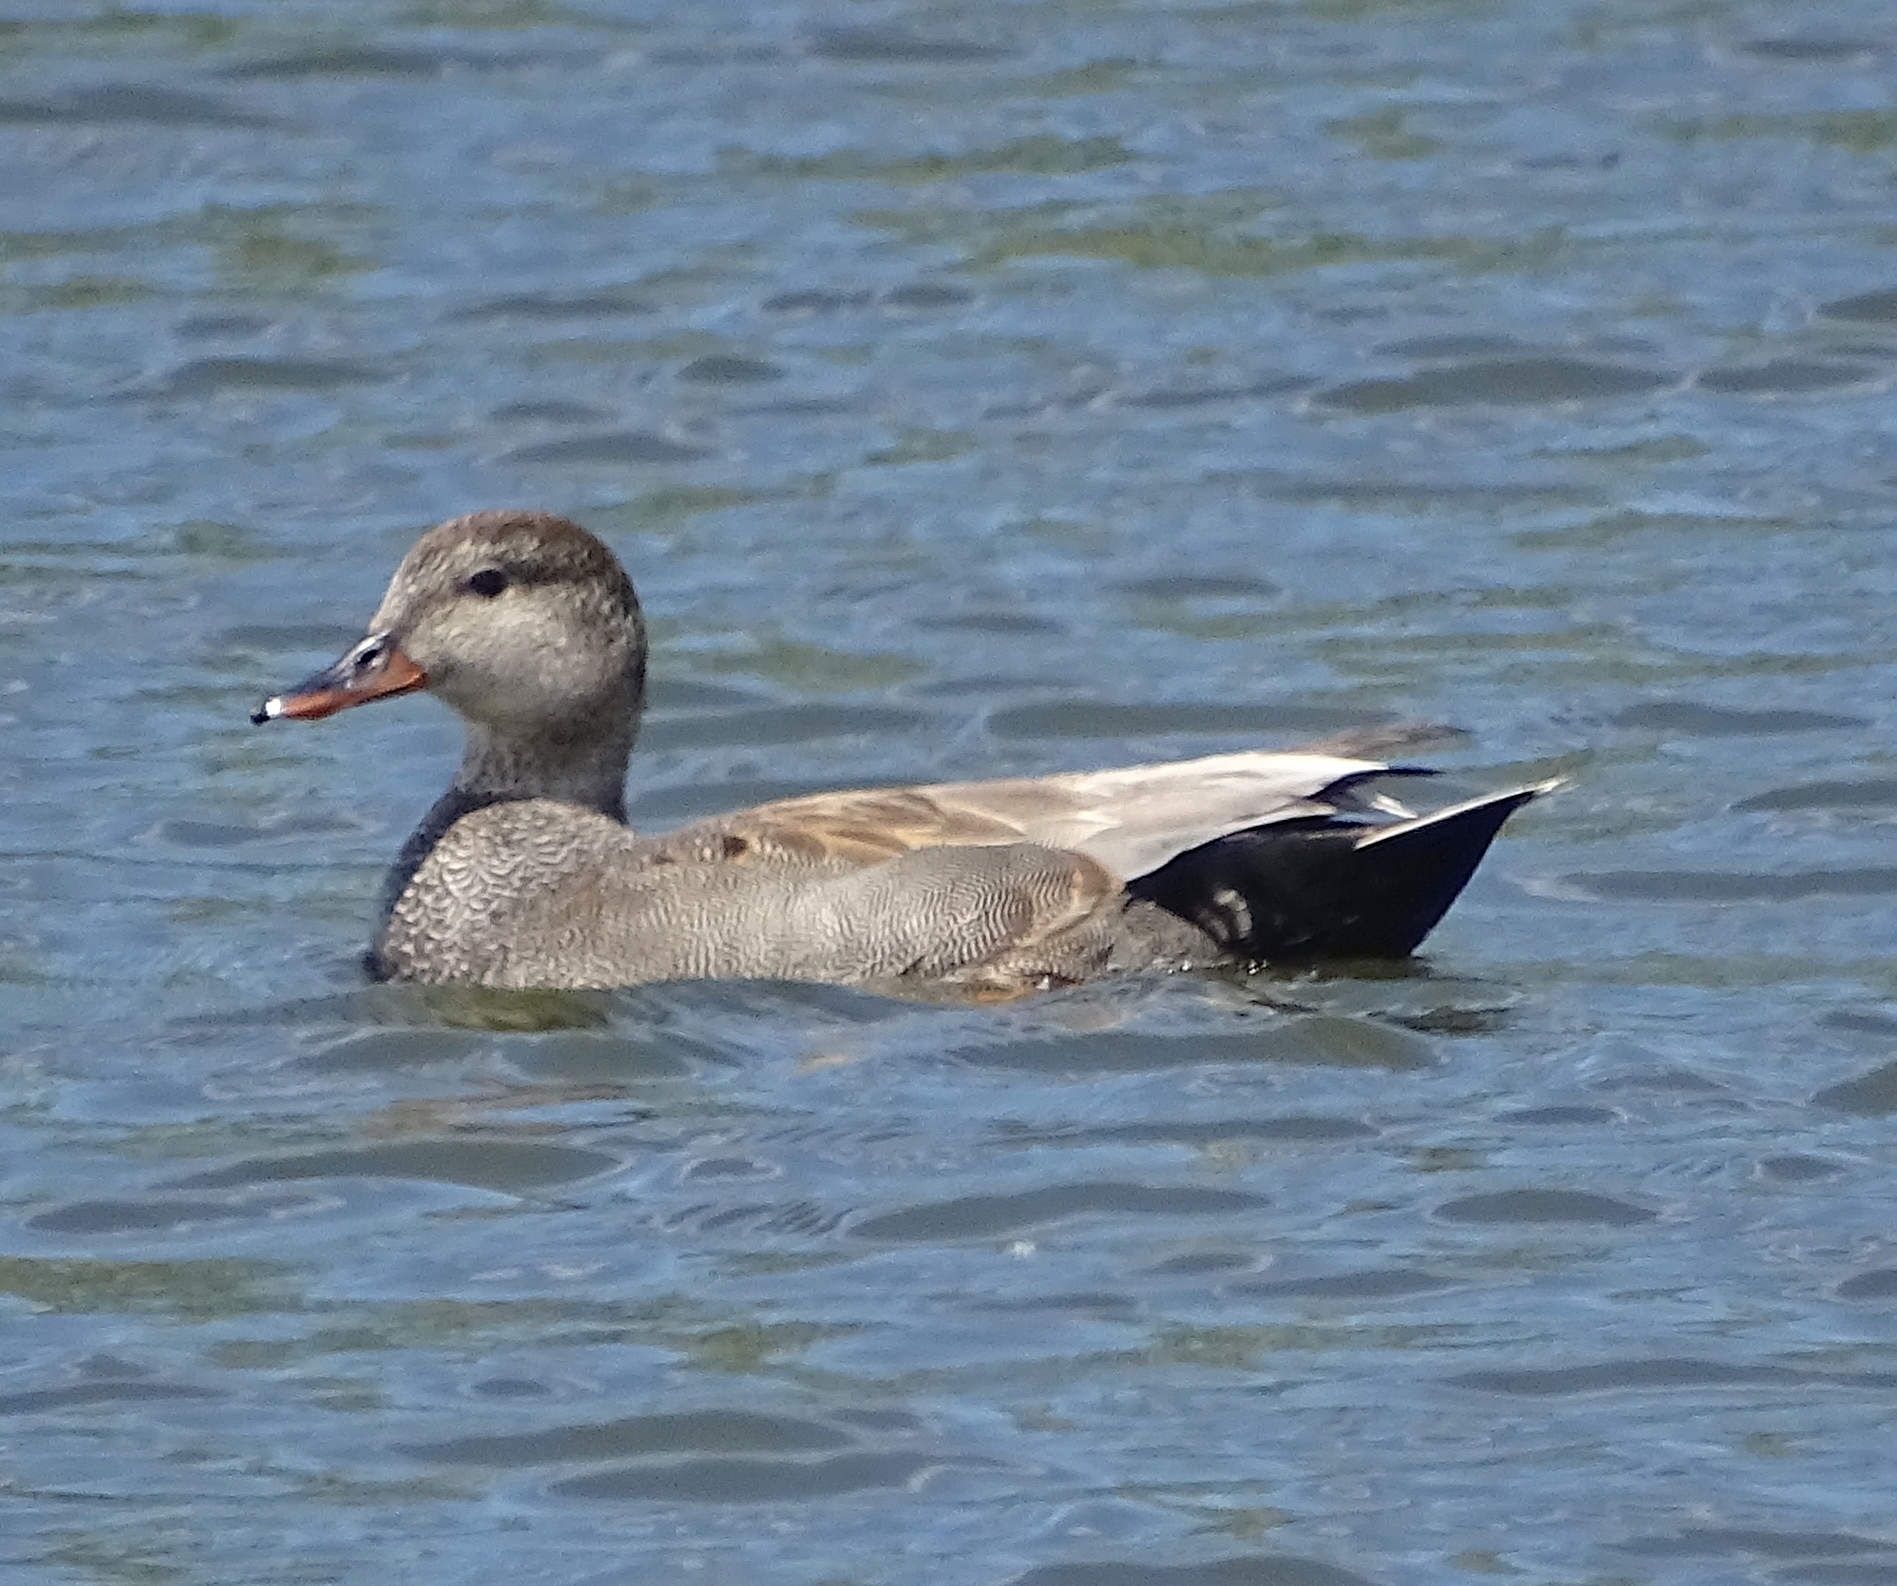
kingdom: Animalia
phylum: Chordata
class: Aves
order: Anseriformes
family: Anatidae
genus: Mareca
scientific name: Mareca strepera
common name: Gadwall
